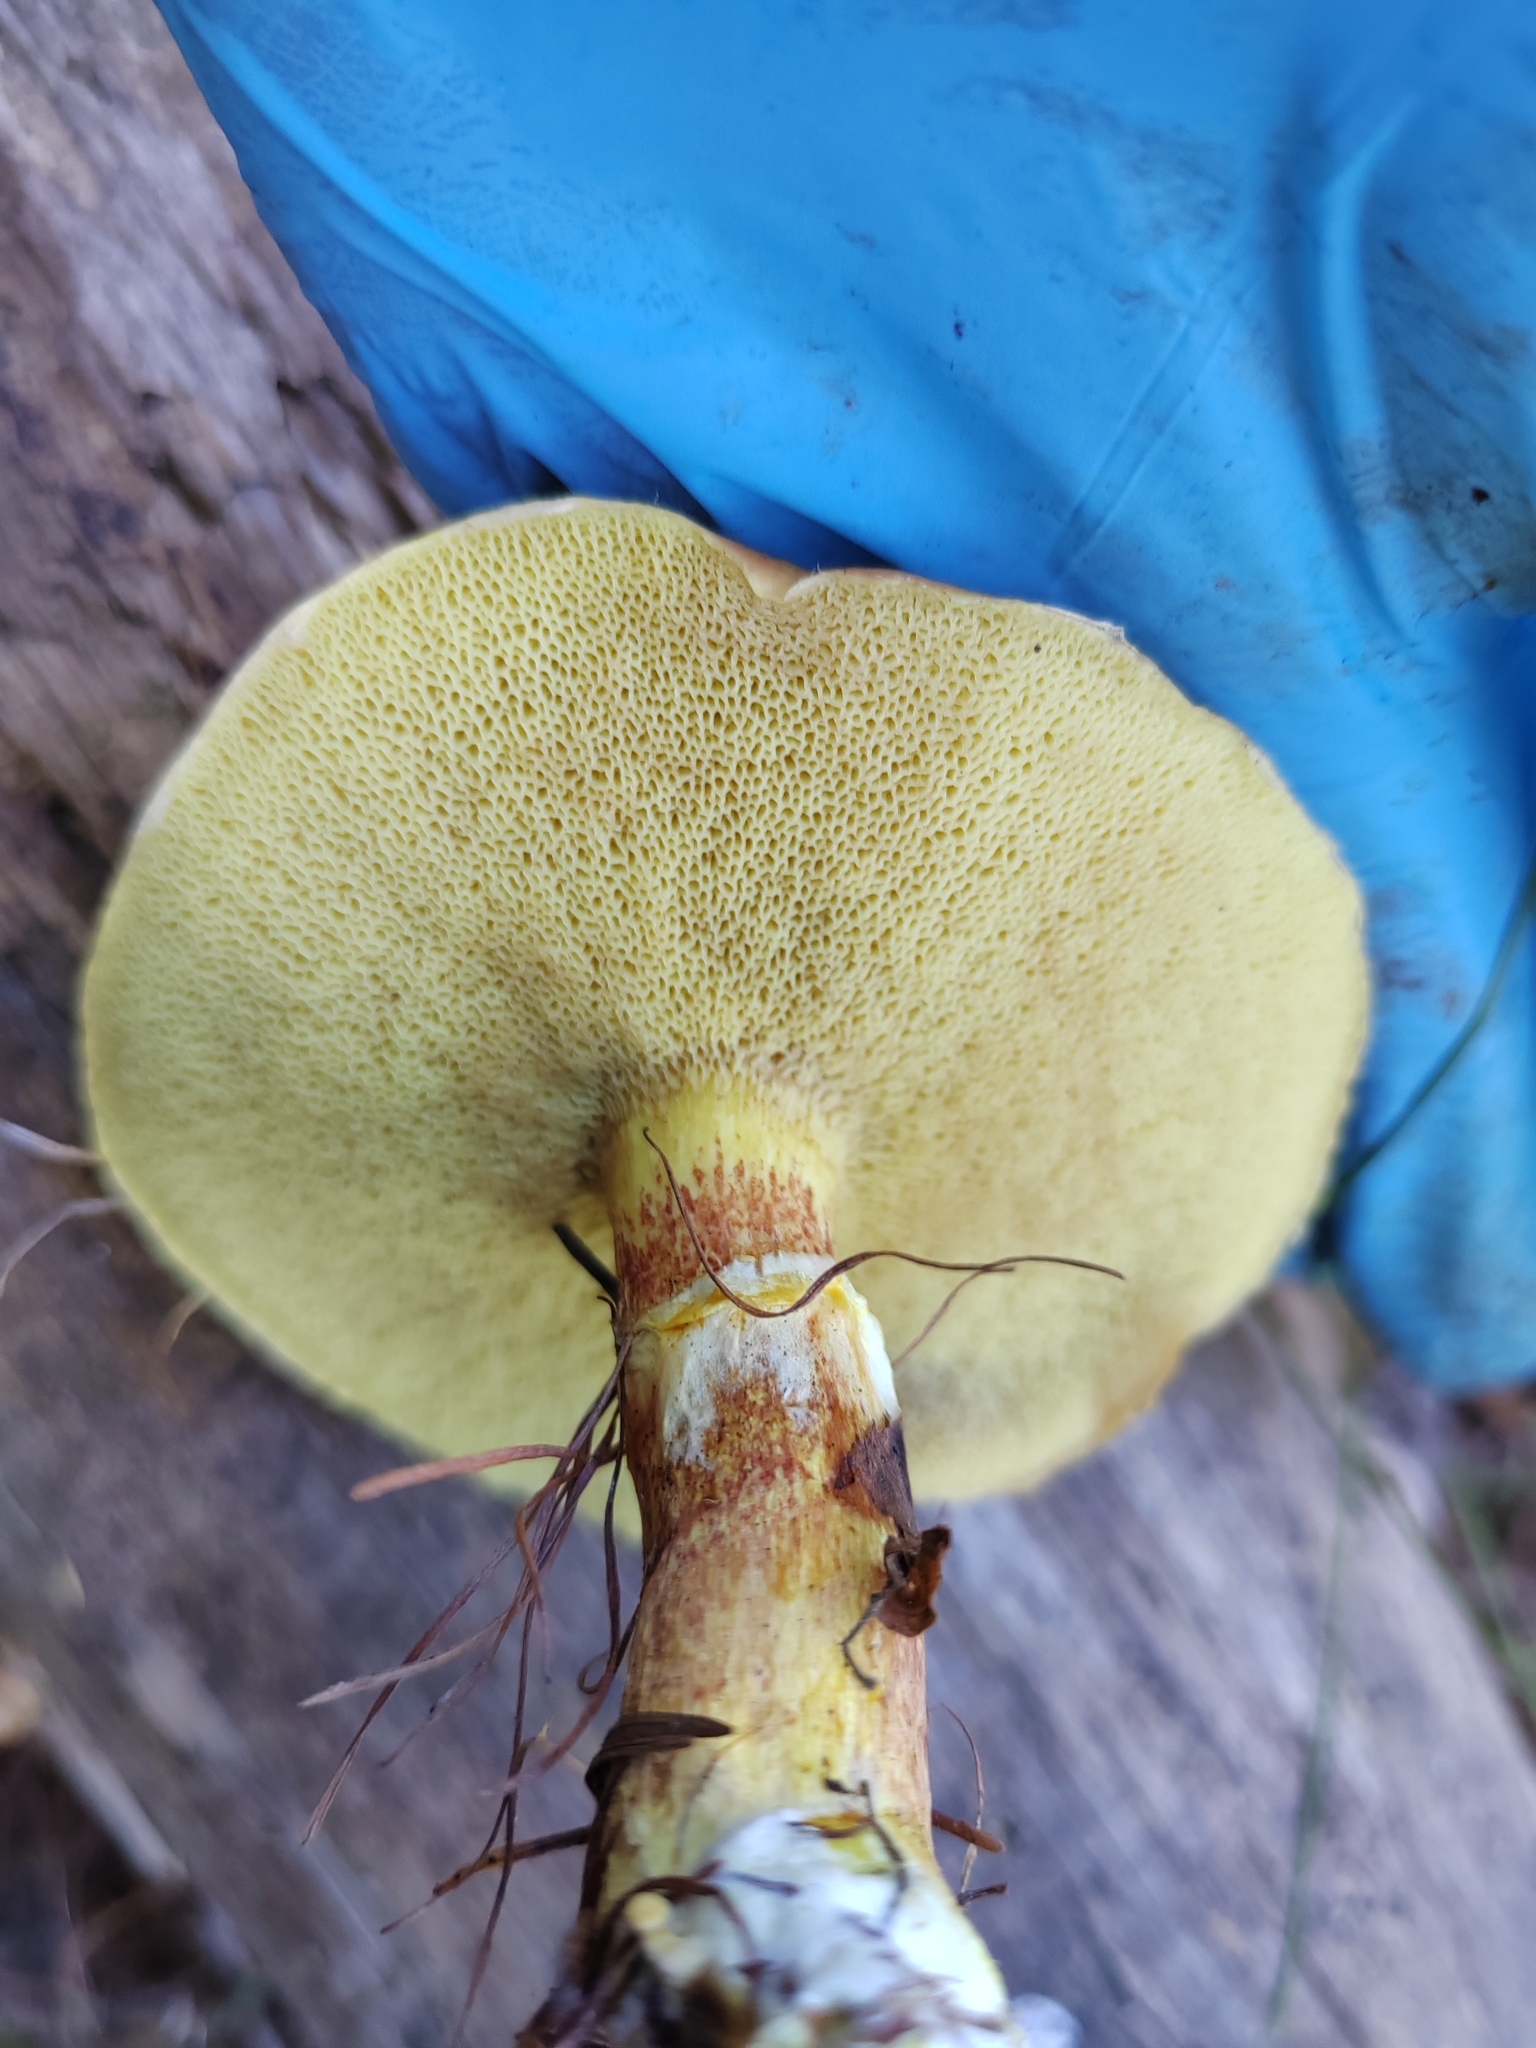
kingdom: Fungi
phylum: Basidiomycota
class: Agaricomycetes
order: Boletales
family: Suillaceae
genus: Suillus
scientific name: Suillus grevillei
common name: Larch bolete
